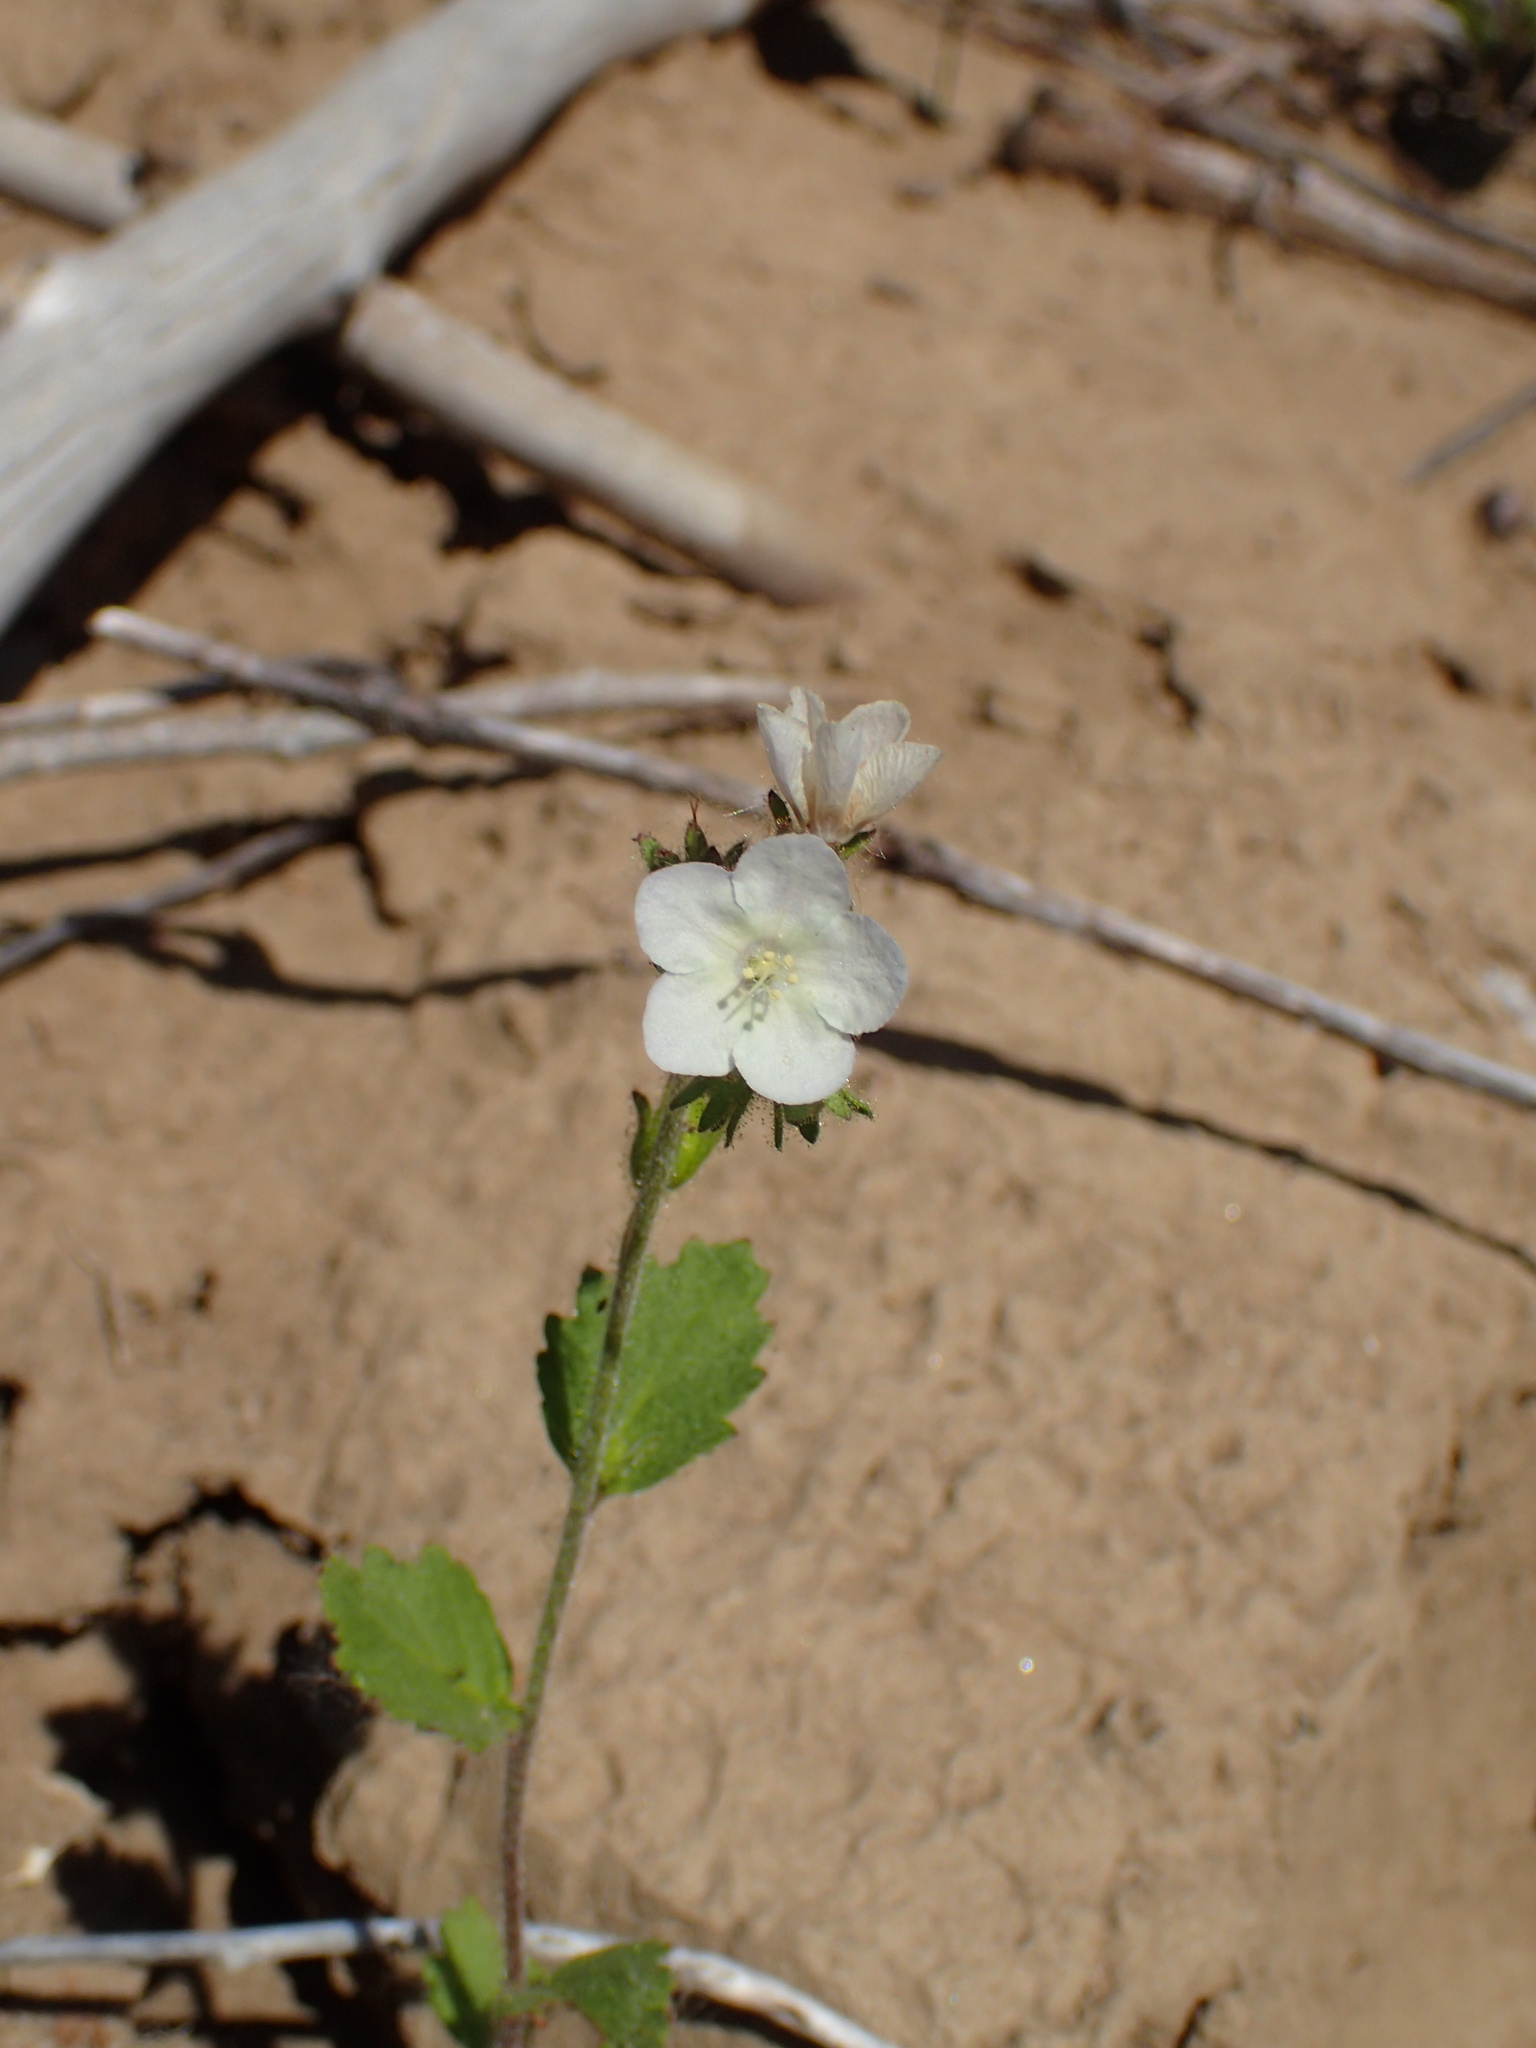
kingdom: Plantae
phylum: Tracheophyta
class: Magnoliopsida
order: Boraginales
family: Hydrophyllaceae
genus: Phacelia
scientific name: Phacelia viscida
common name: Sticky phacelia
